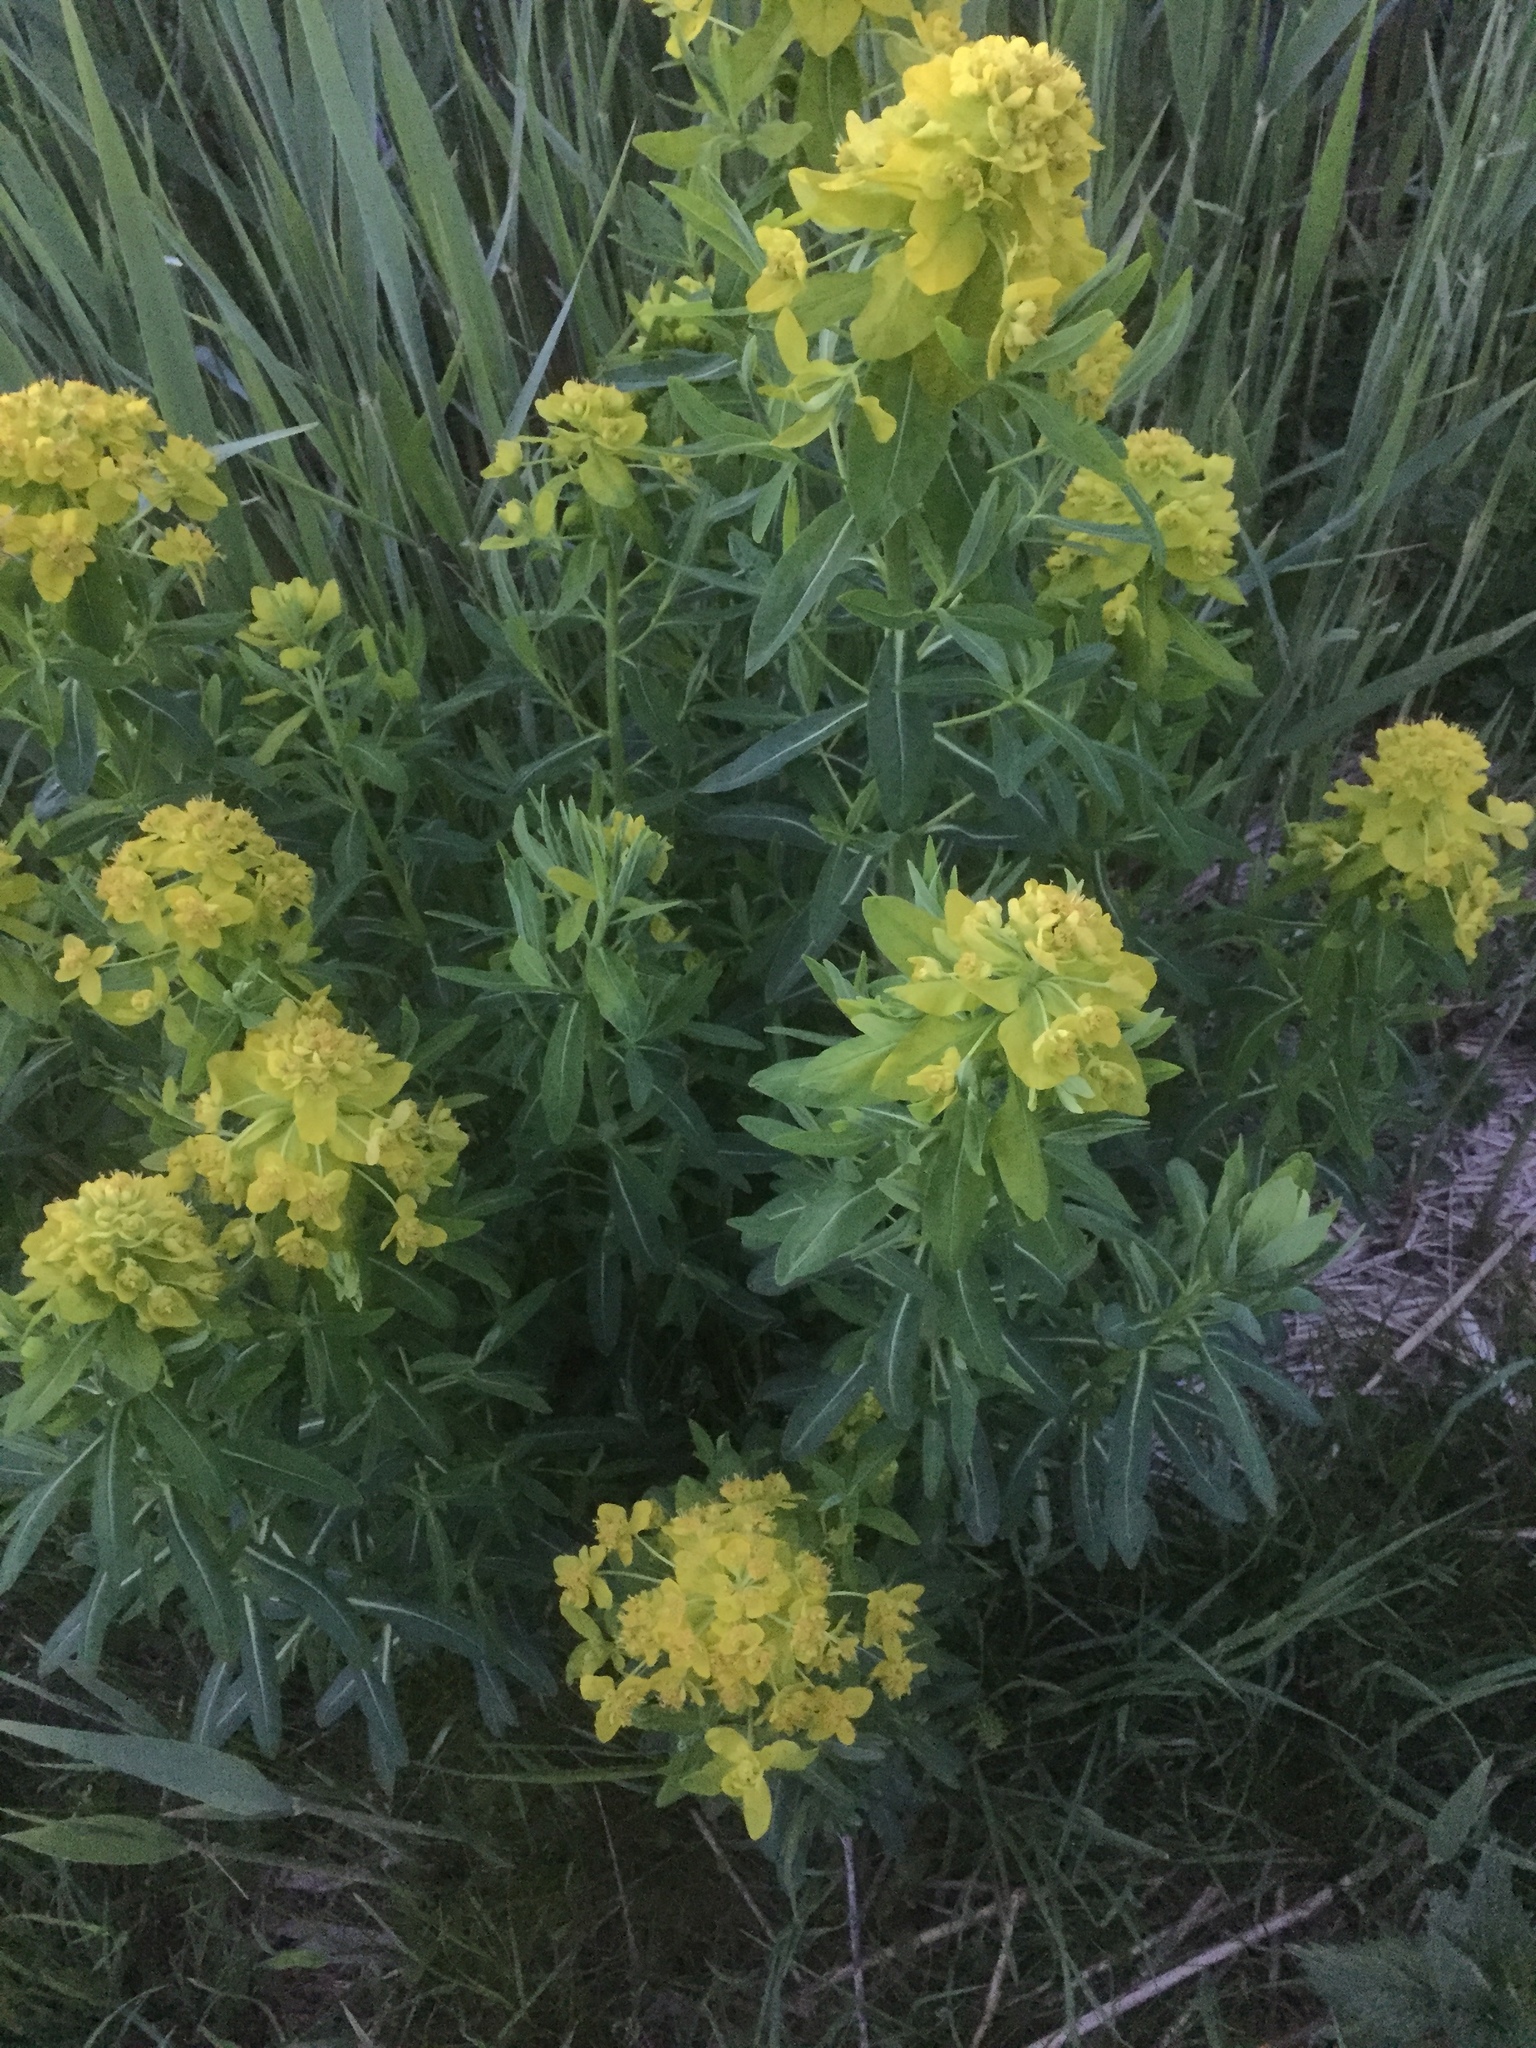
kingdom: Plantae
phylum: Tracheophyta
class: Magnoliopsida
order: Malpighiales
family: Euphorbiaceae
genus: Euphorbia
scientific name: Euphorbia palustris
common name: Marsh spurge
